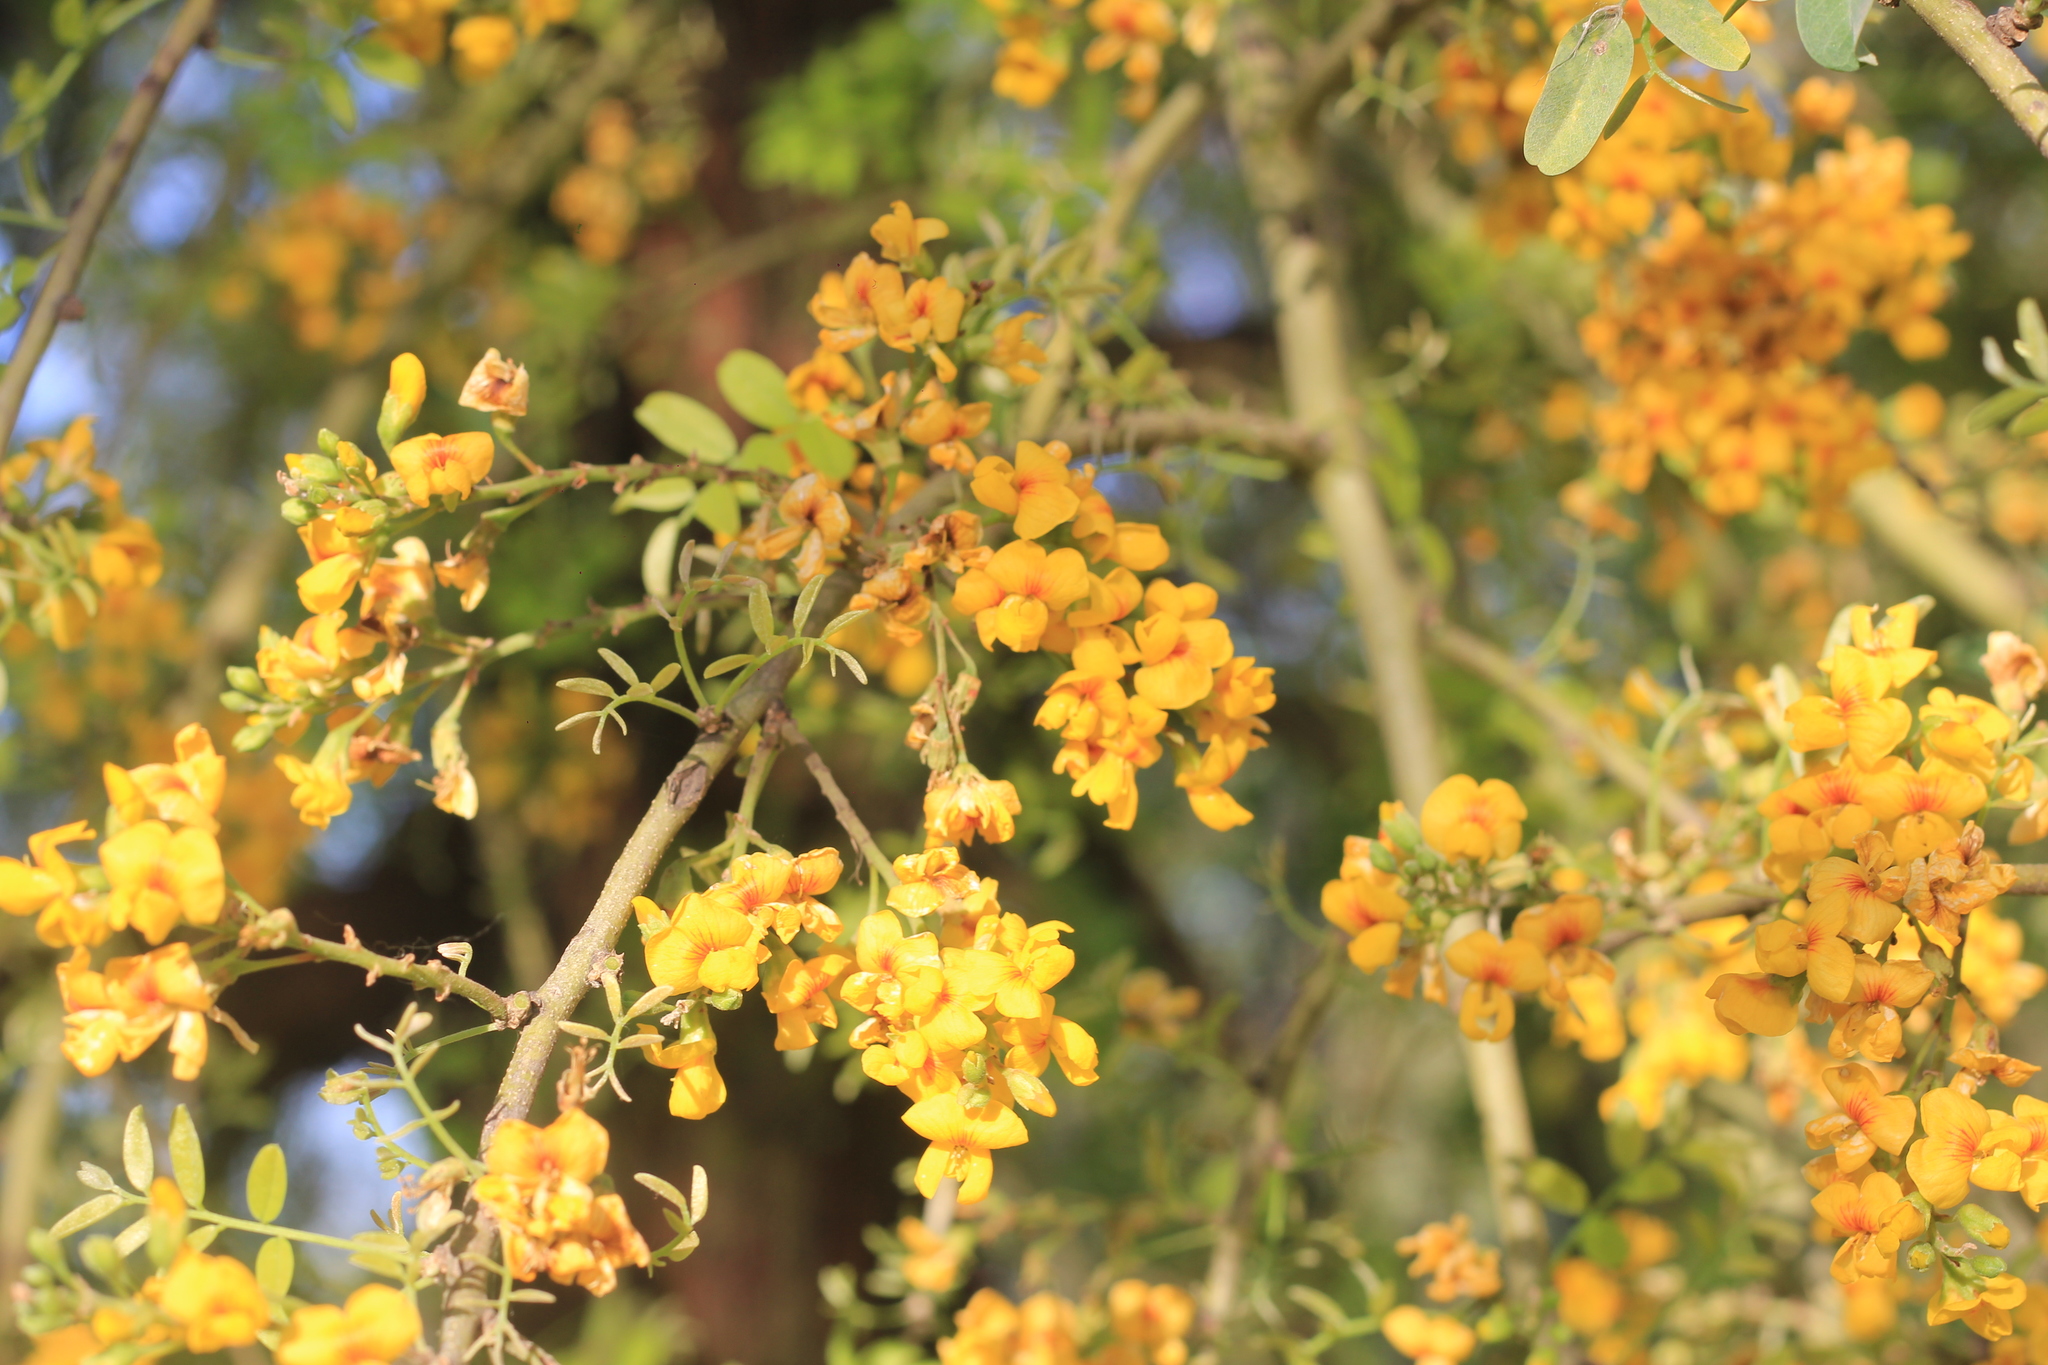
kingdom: Plantae
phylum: Tracheophyta
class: Magnoliopsida
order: Fabales
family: Fabaceae
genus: Geoffroea
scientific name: Geoffroea decorticans
